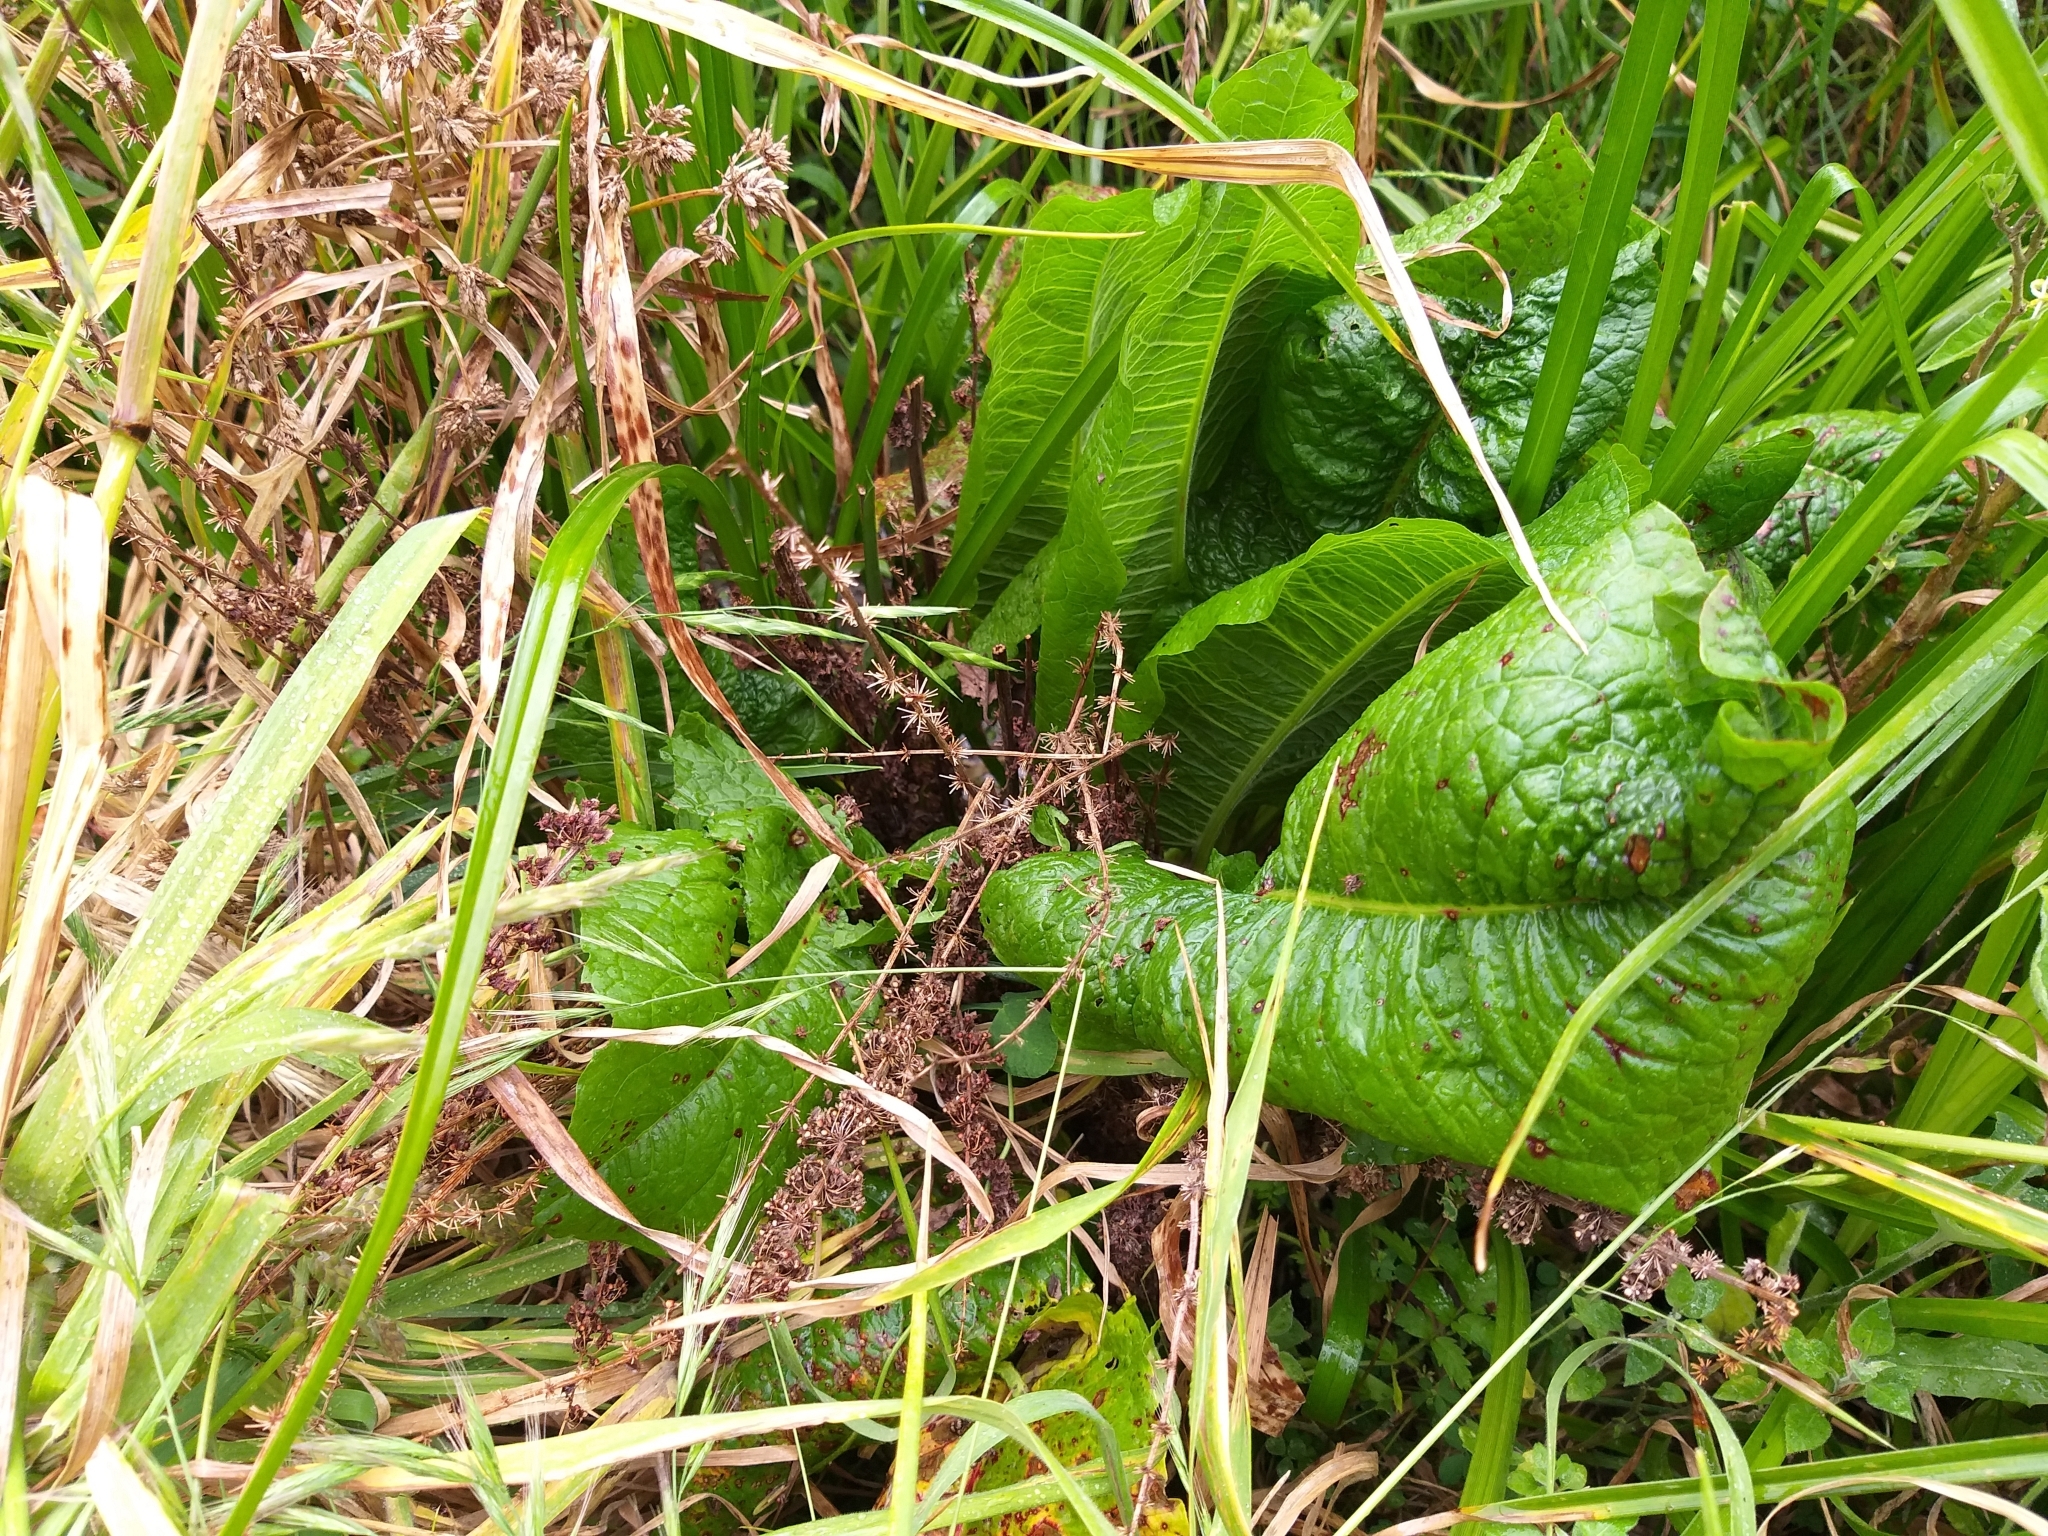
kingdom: Plantae
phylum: Tracheophyta
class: Magnoliopsida
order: Caryophyllales
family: Polygonaceae
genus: Rumex
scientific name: Rumex obtusifolius
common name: Bitter dock
